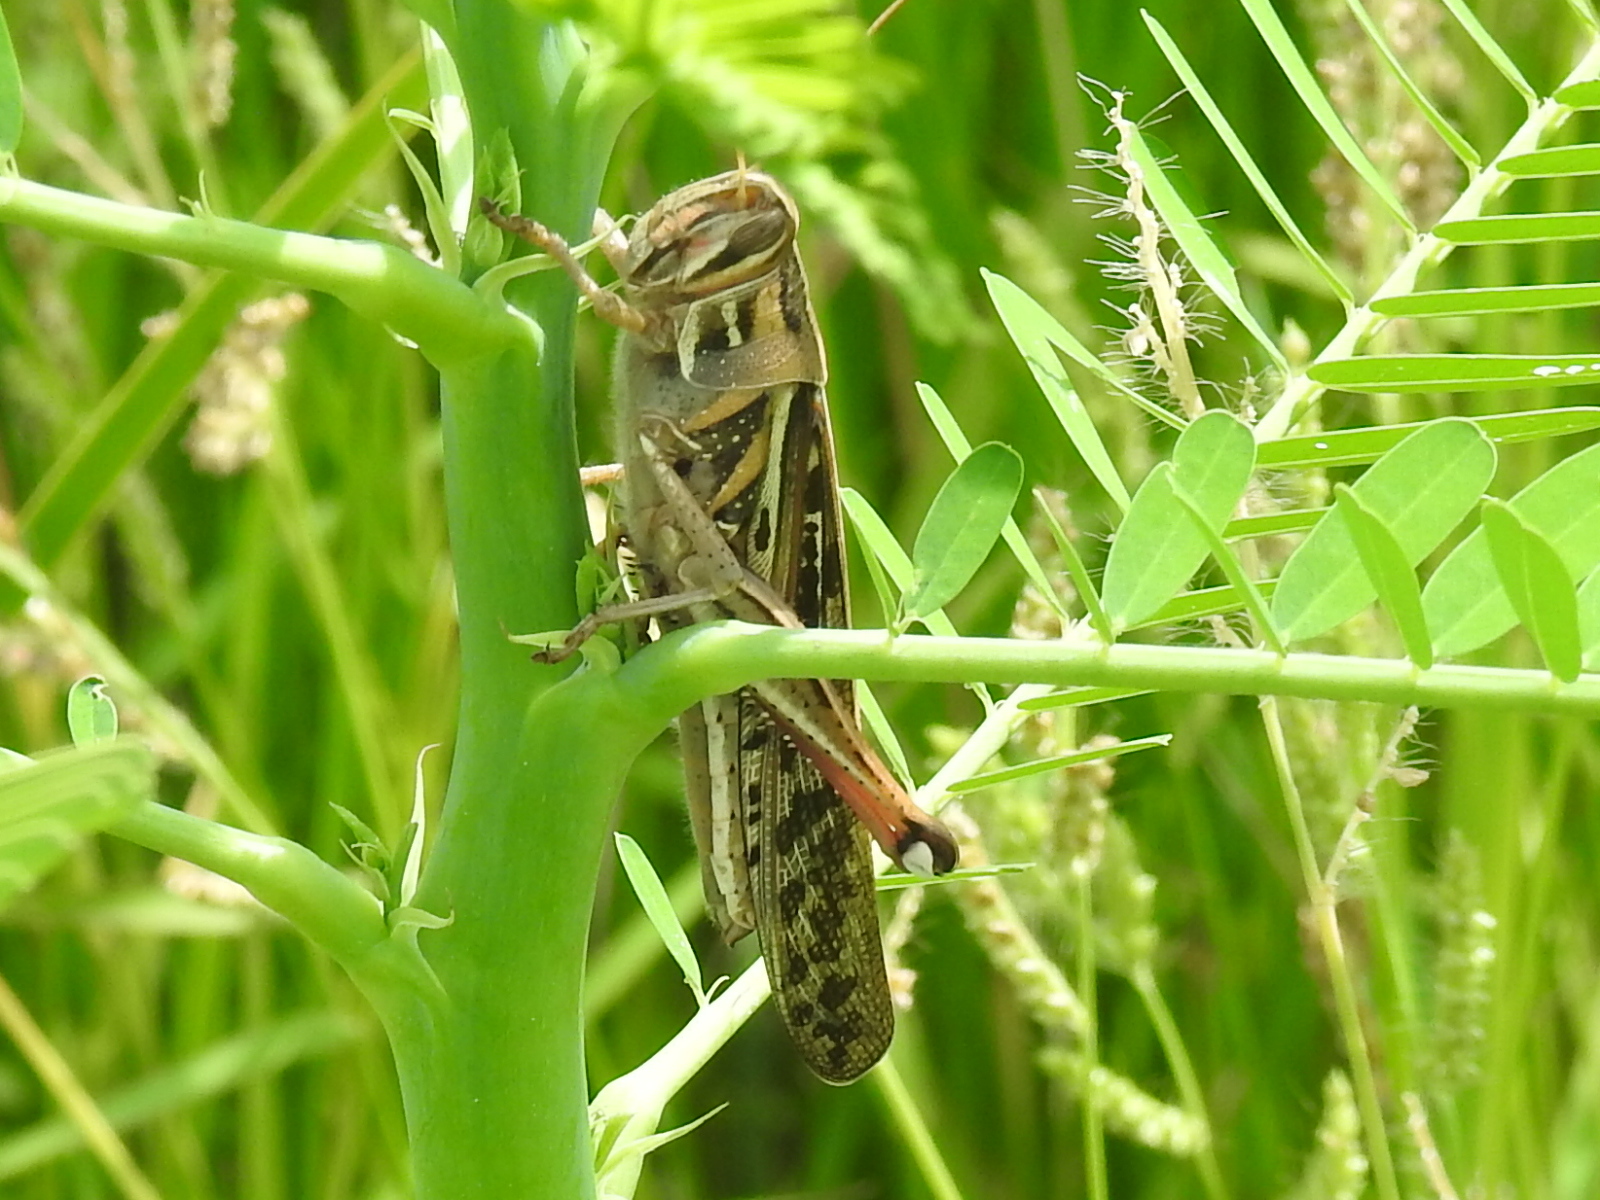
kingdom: Animalia
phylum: Arthropoda
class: Insecta
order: Orthoptera
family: Acrididae
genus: Schistocerca
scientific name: Schistocerca americana
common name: American bird locust
